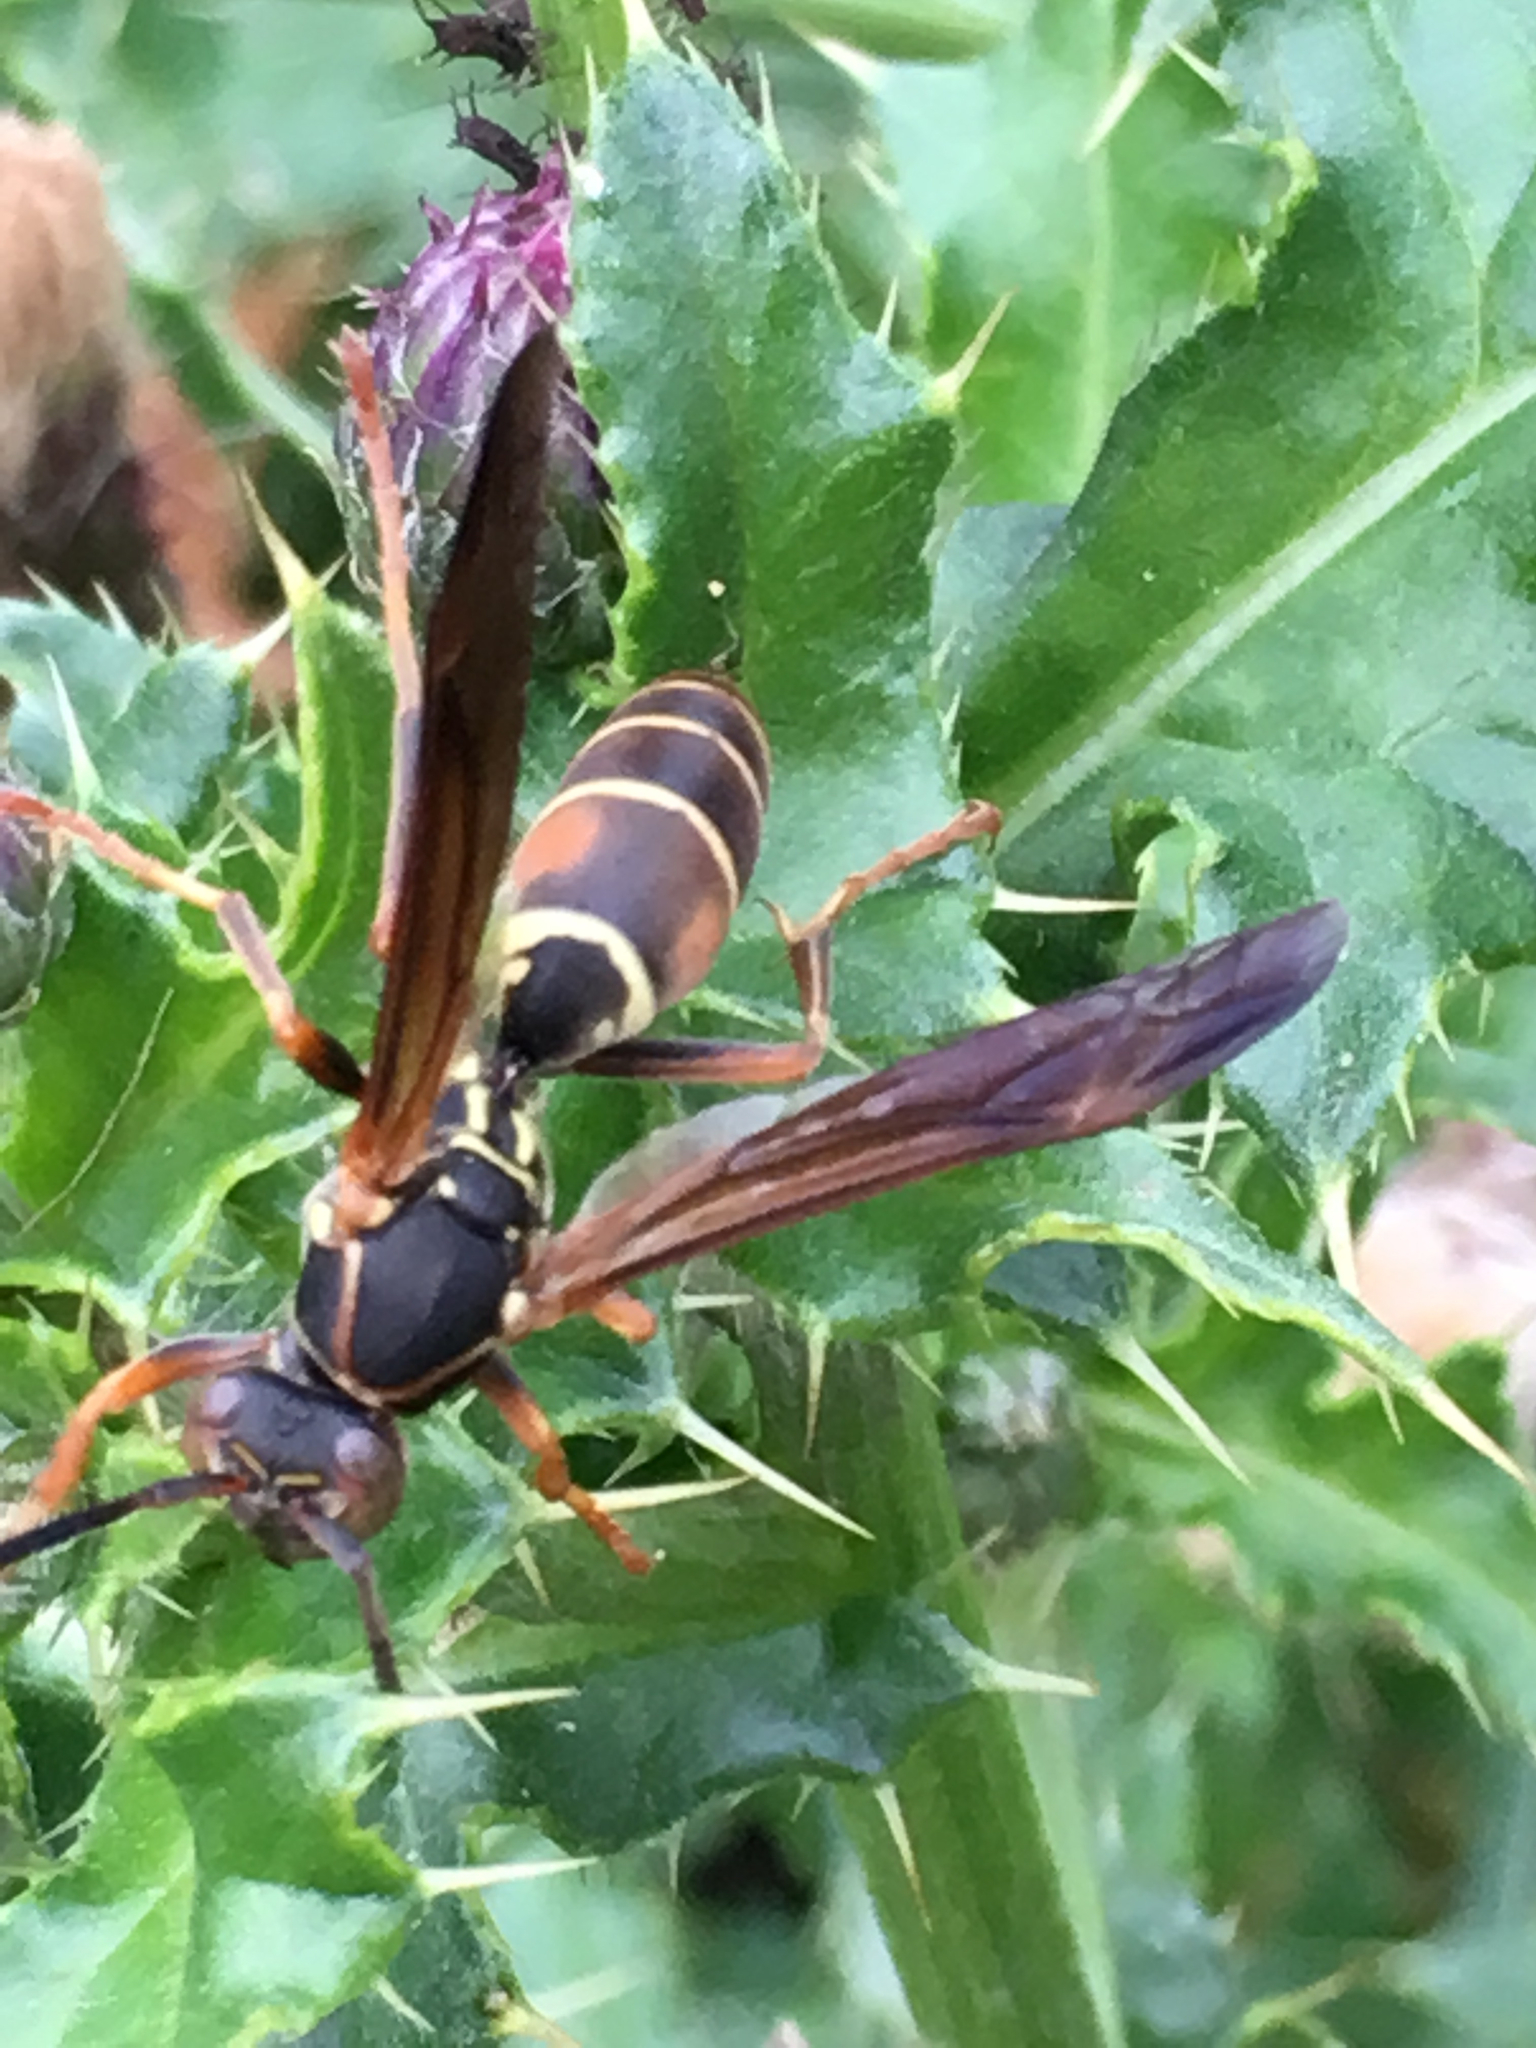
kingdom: Animalia
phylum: Arthropoda
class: Insecta
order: Hymenoptera
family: Eumenidae
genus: Polistes
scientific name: Polistes fuscatus
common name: Dark paper wasp
